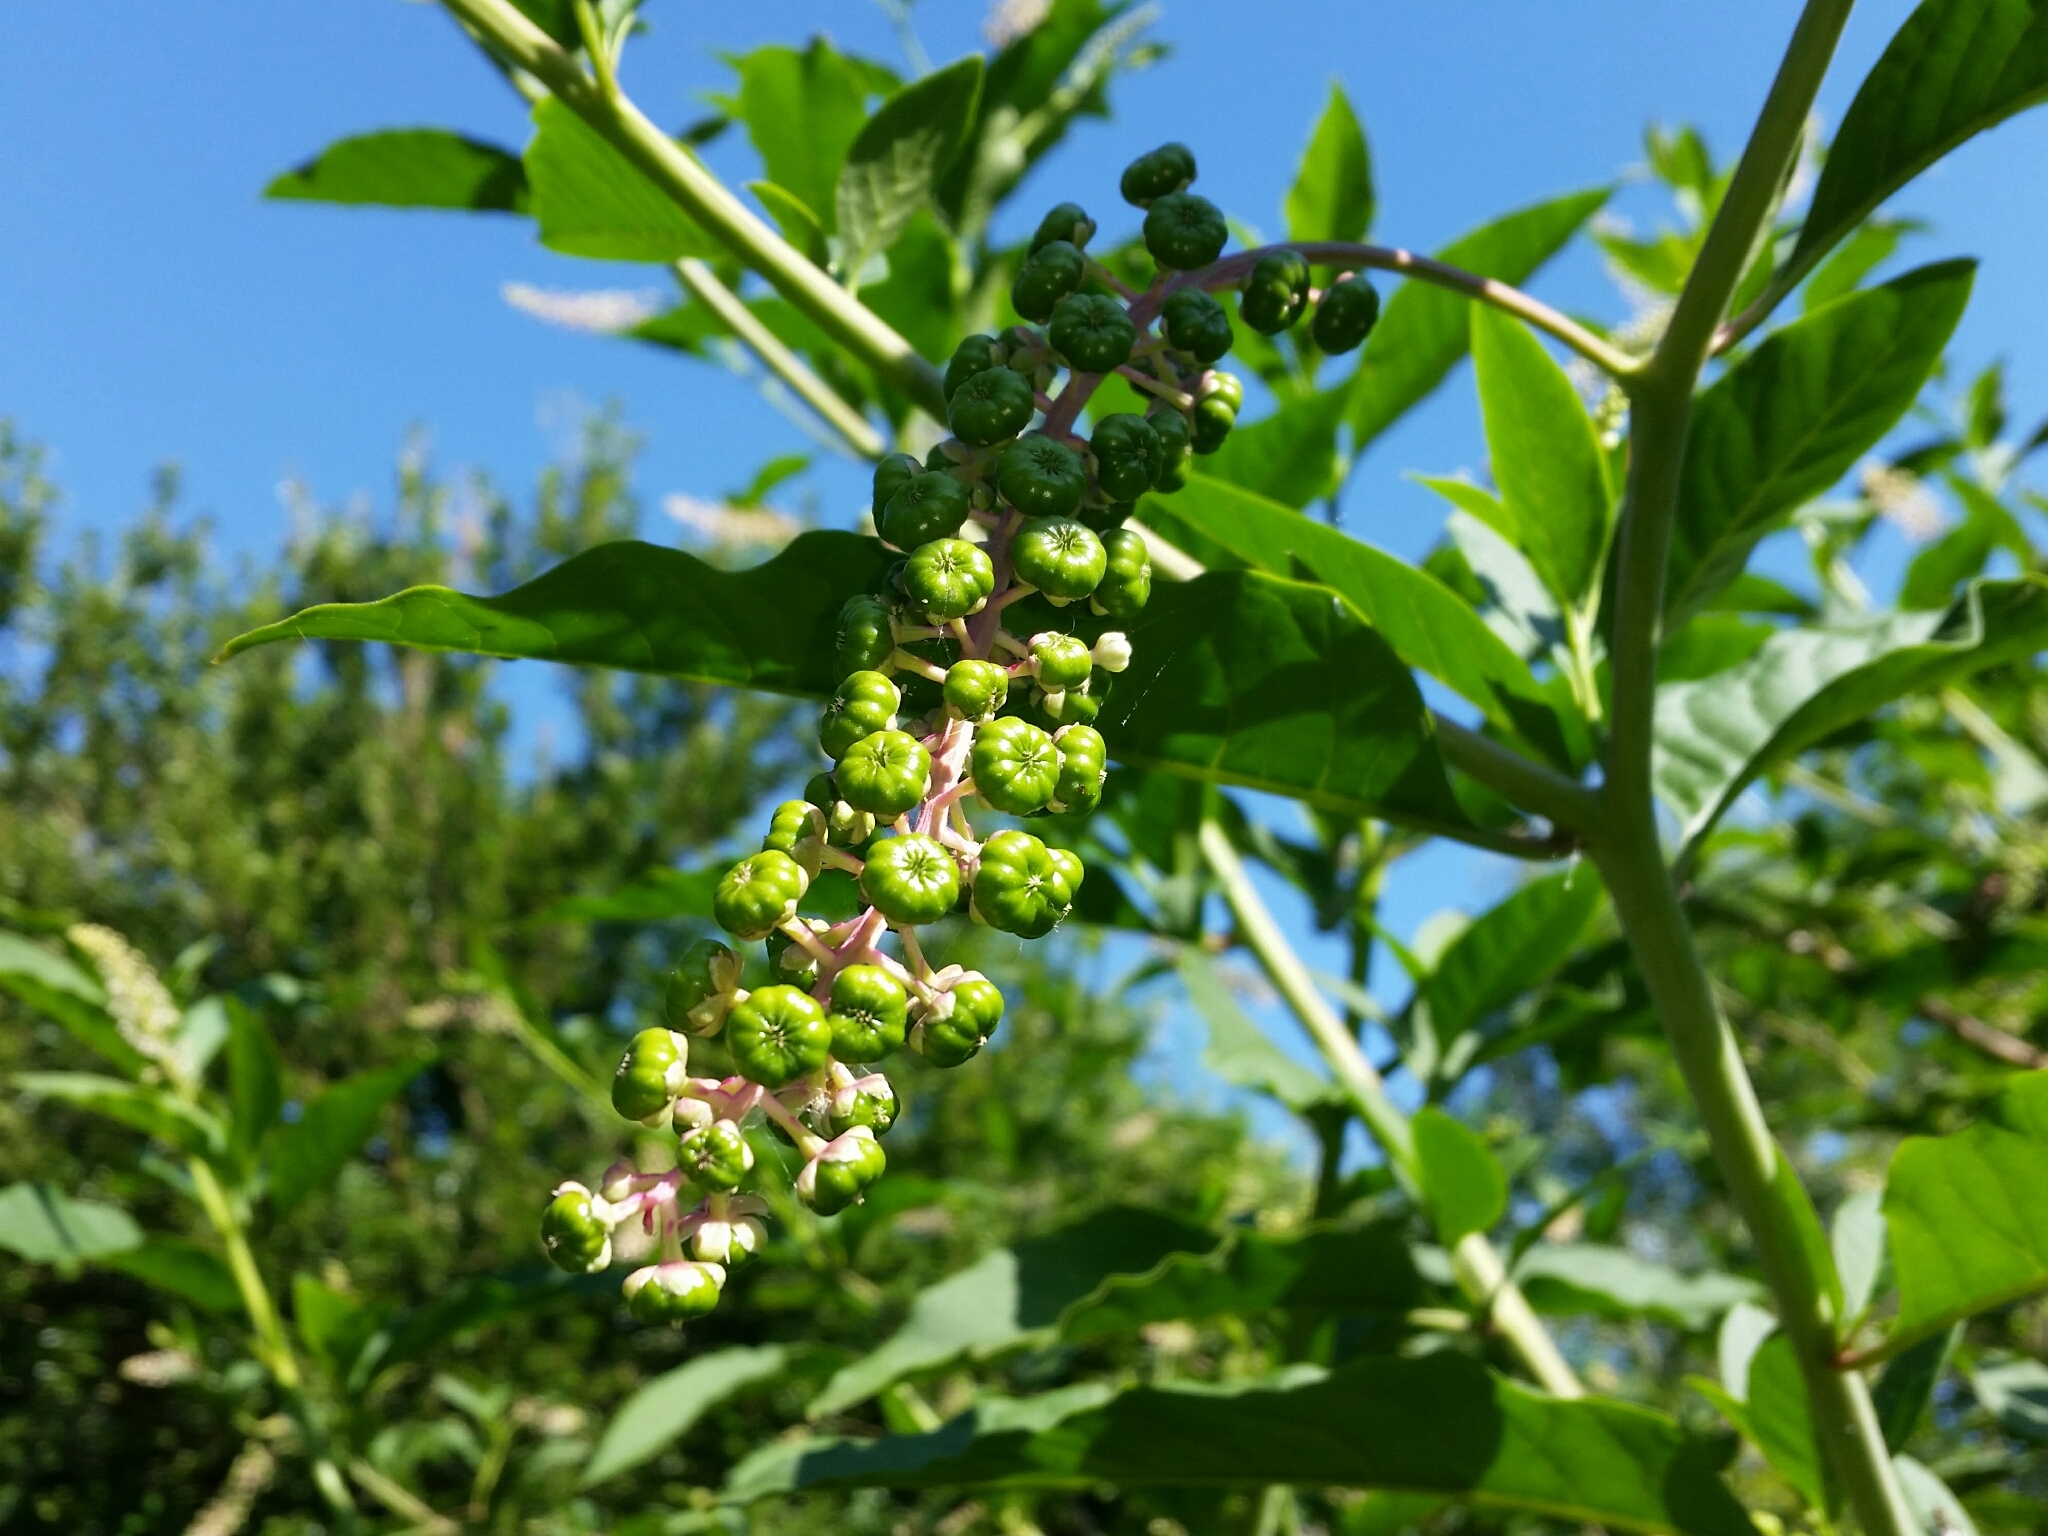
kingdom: Plantae
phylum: Tracheophyta
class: Magnoliopsida
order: Caryophyllales
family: Phytolaccaceae
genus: Phytolacca
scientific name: Phytolacca americana
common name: American pokeweed
